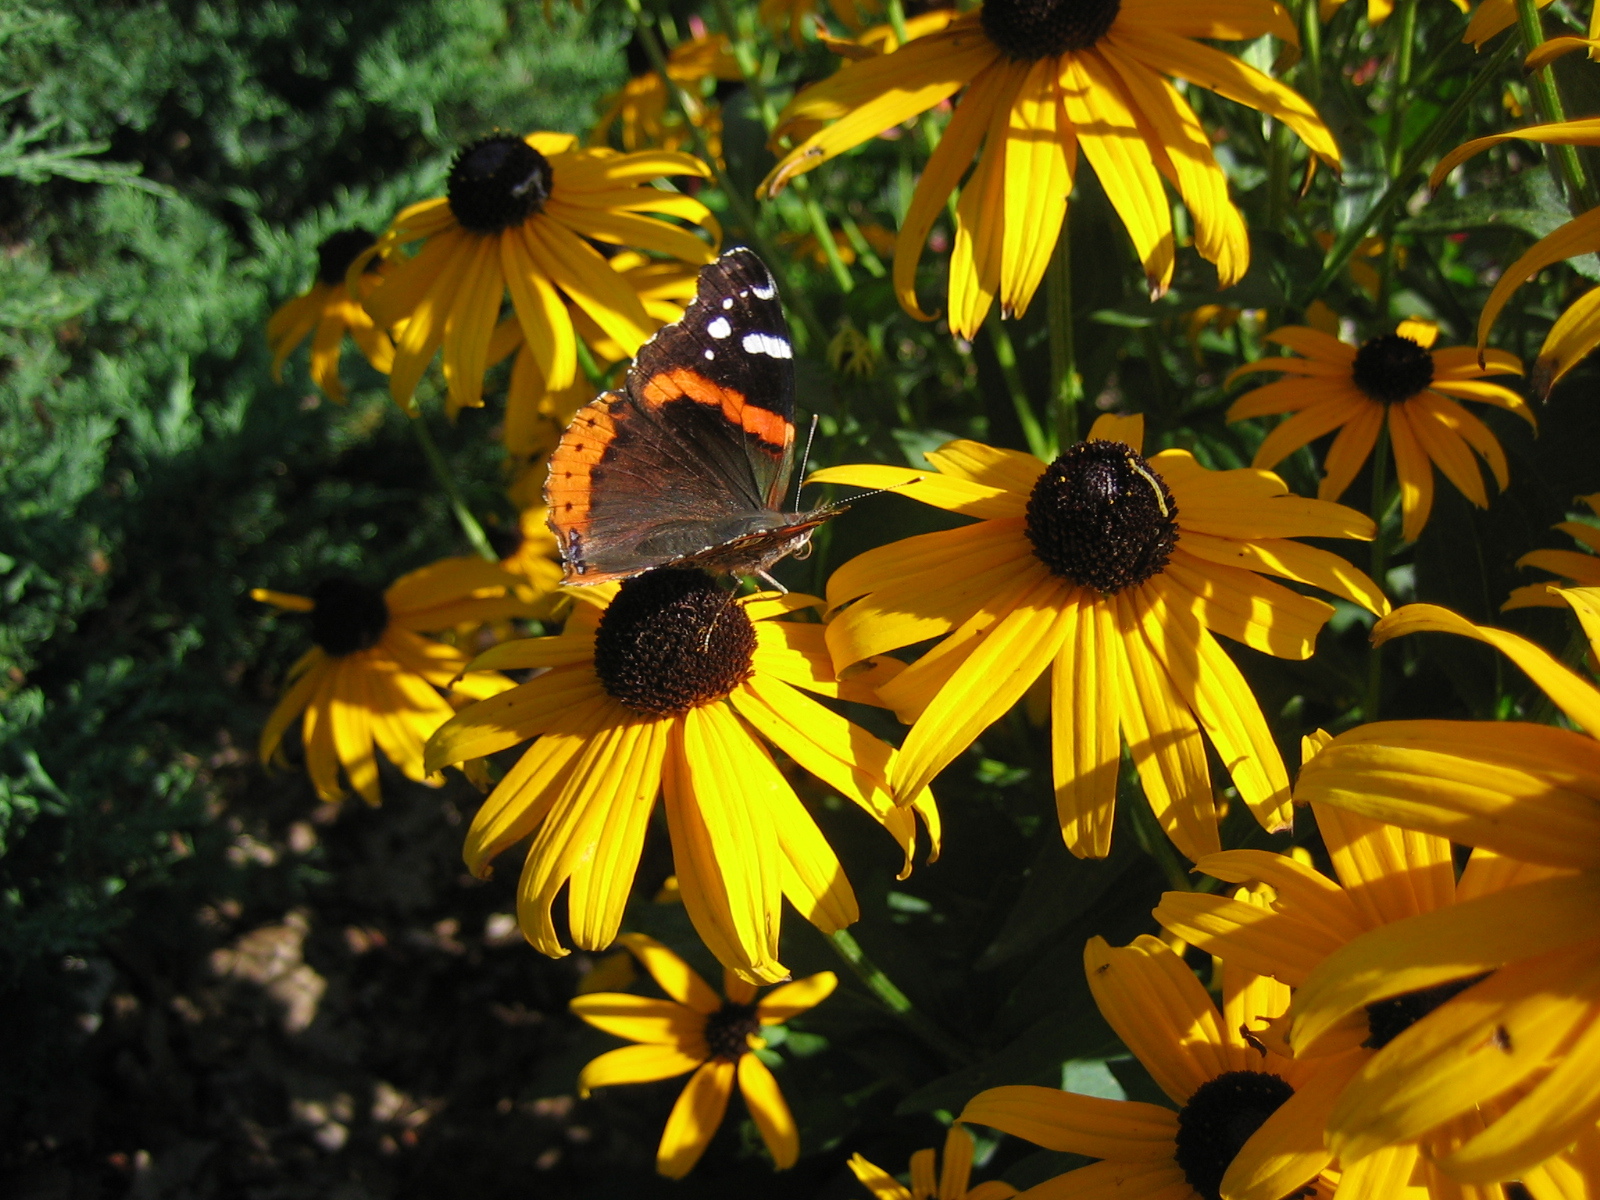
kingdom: Animalia
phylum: Arthropoda
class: Insecta
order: Lepidoptera
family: Nymphalidae
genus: Vanessa
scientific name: Vanessa atalanta
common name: Red admiral
